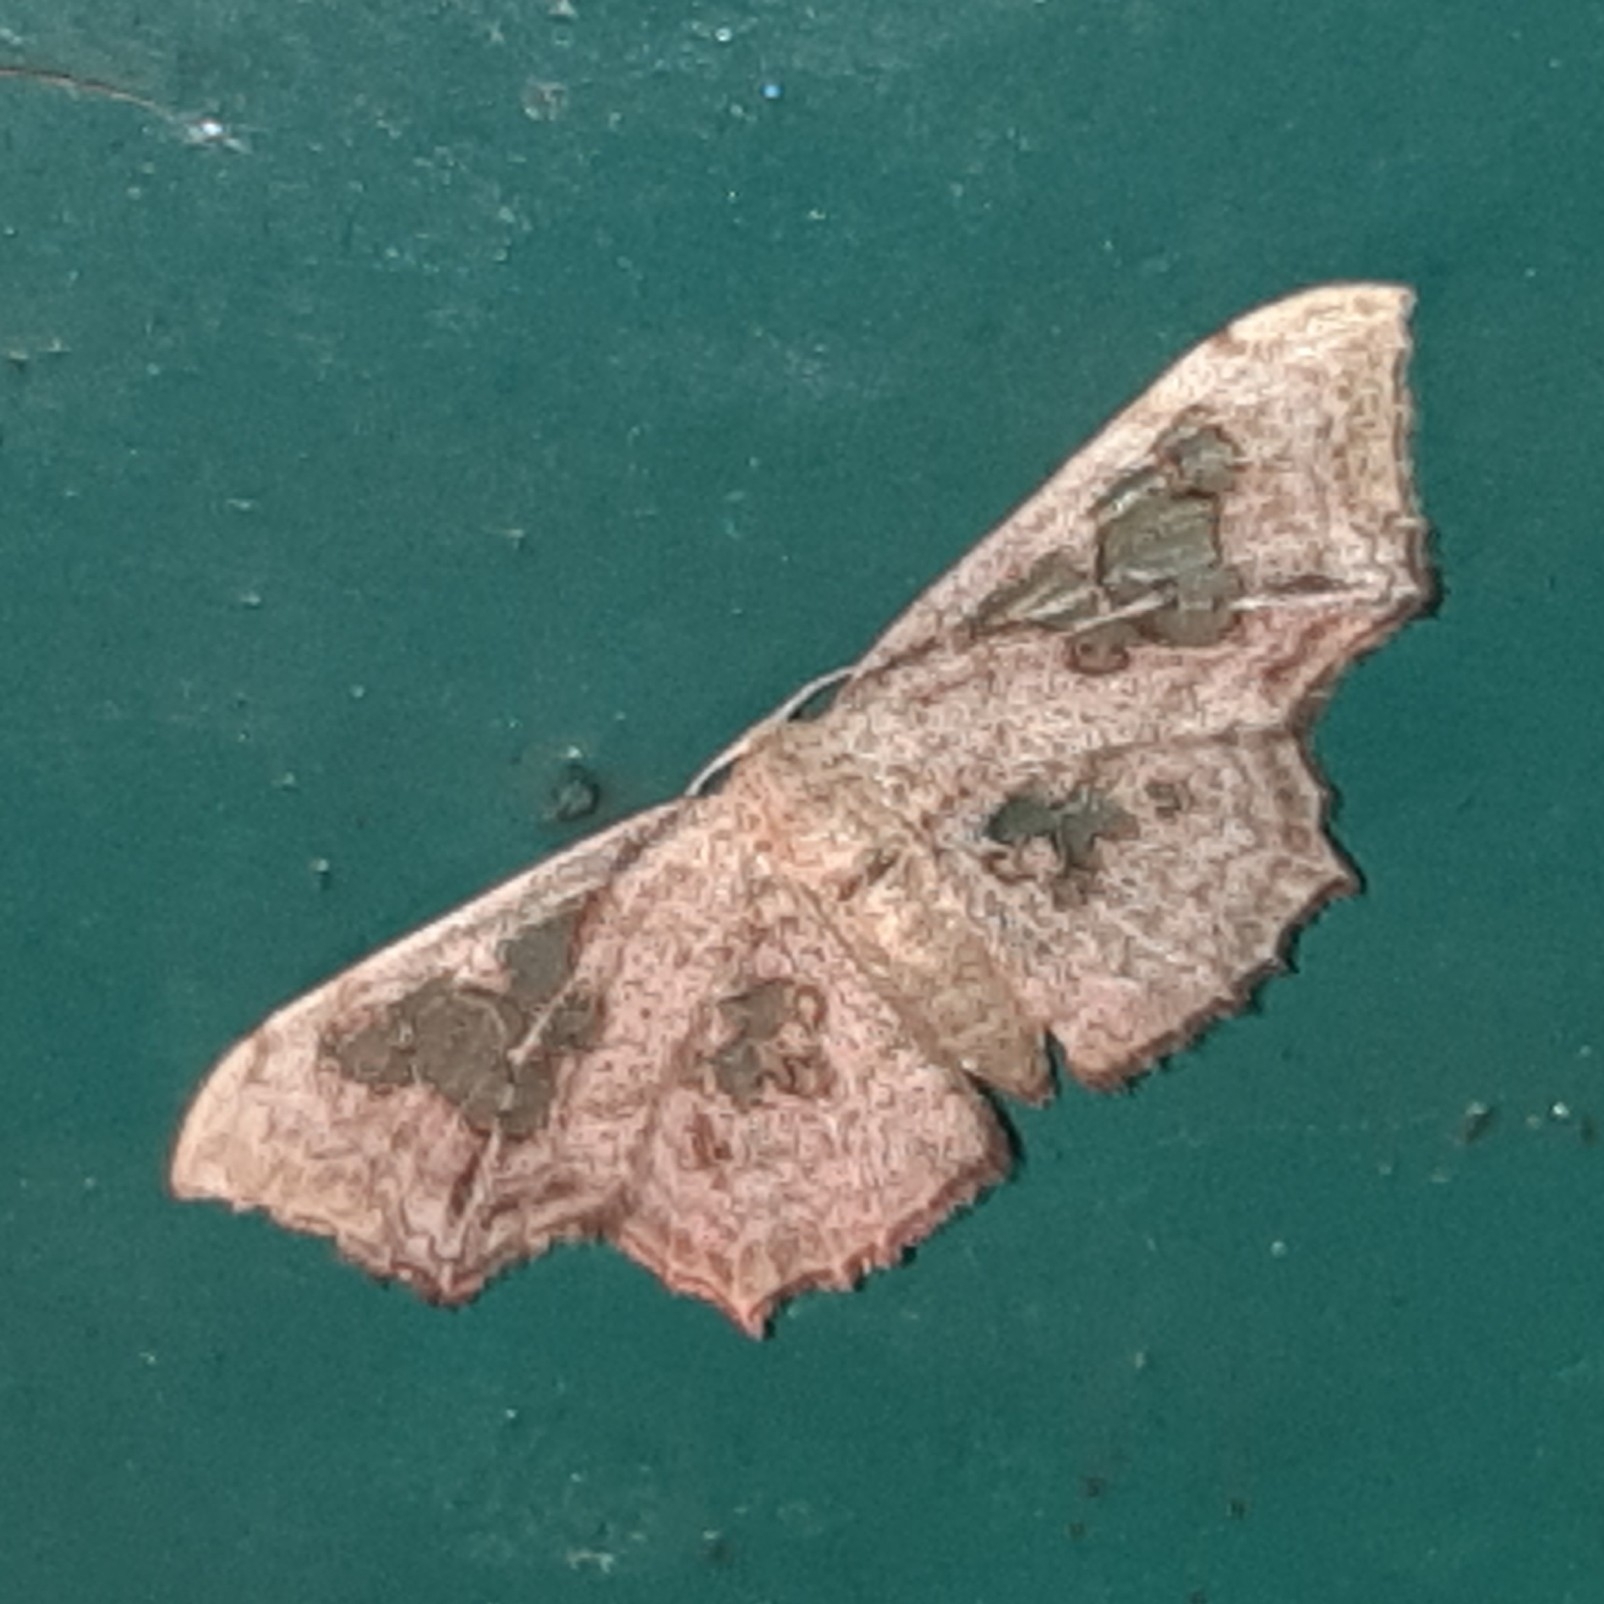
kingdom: Animalia
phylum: Arthropoda
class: Insecta
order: Lepidoptera
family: Geometridae
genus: Pseudasellodes
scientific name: Pseudasellodes fenestraria
